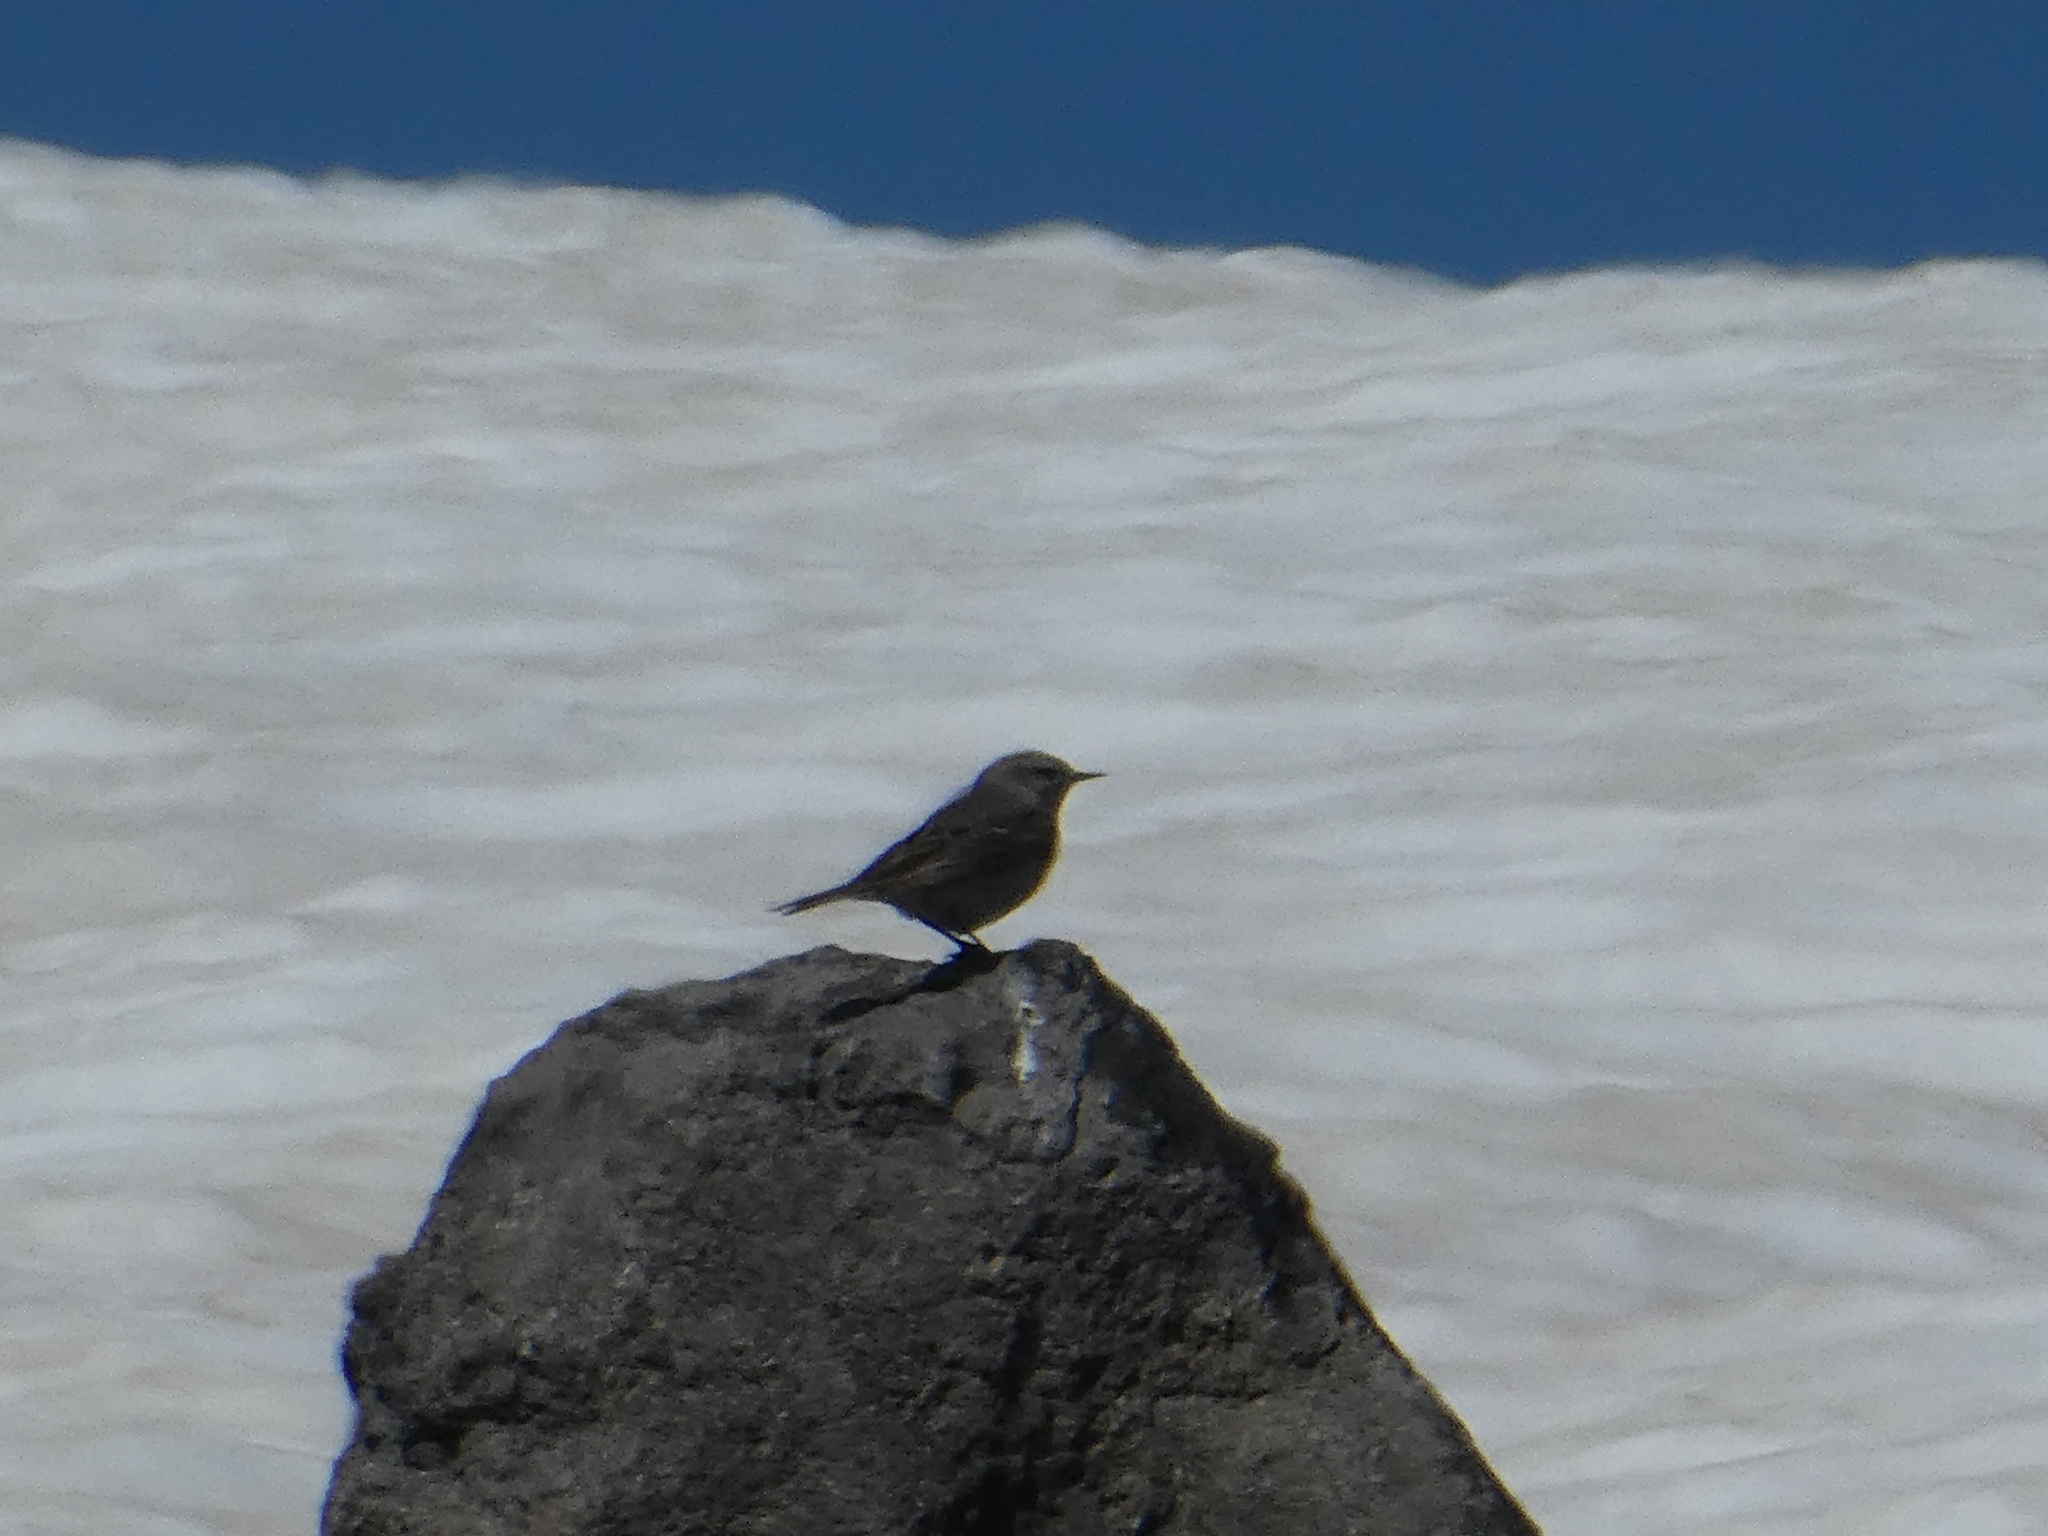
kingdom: Animalia
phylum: Chordata
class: Aves
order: Passeriformes
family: Motacillidae
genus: Anthus
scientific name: Anthus rubescens
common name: Buff-bellied pipit
